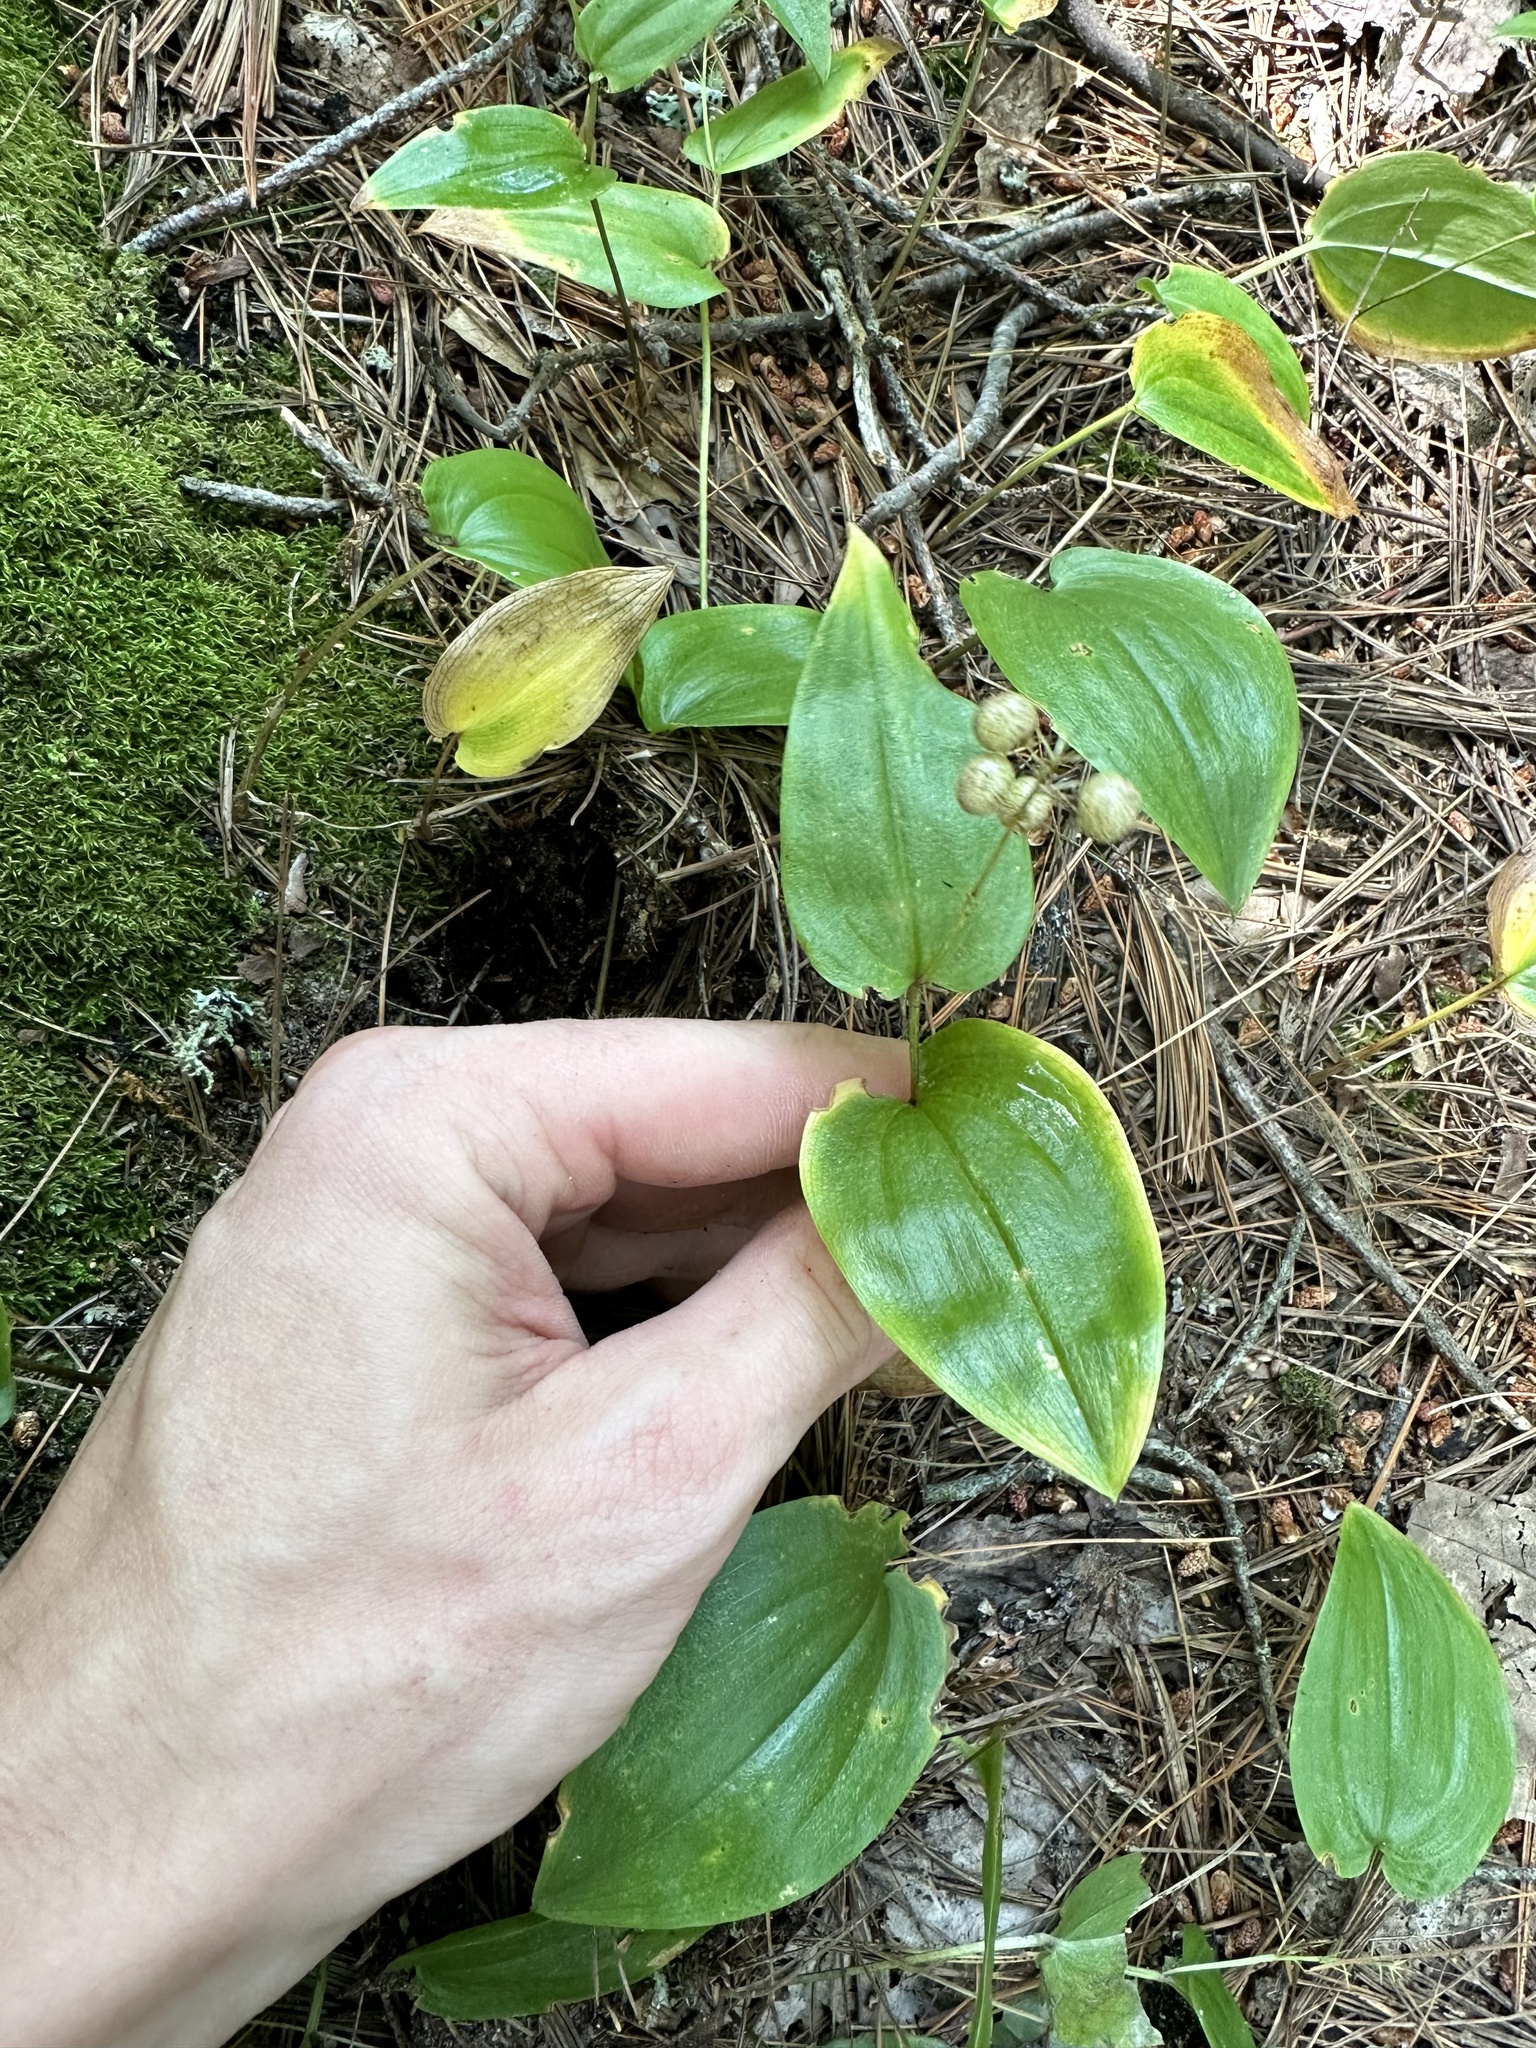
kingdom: Plantae
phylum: Tracheophyta
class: Liliopsida
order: Asparagales
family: Asparagaceae
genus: Maianthemum
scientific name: Maianthemum canadense
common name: False lily-of-the-valley
